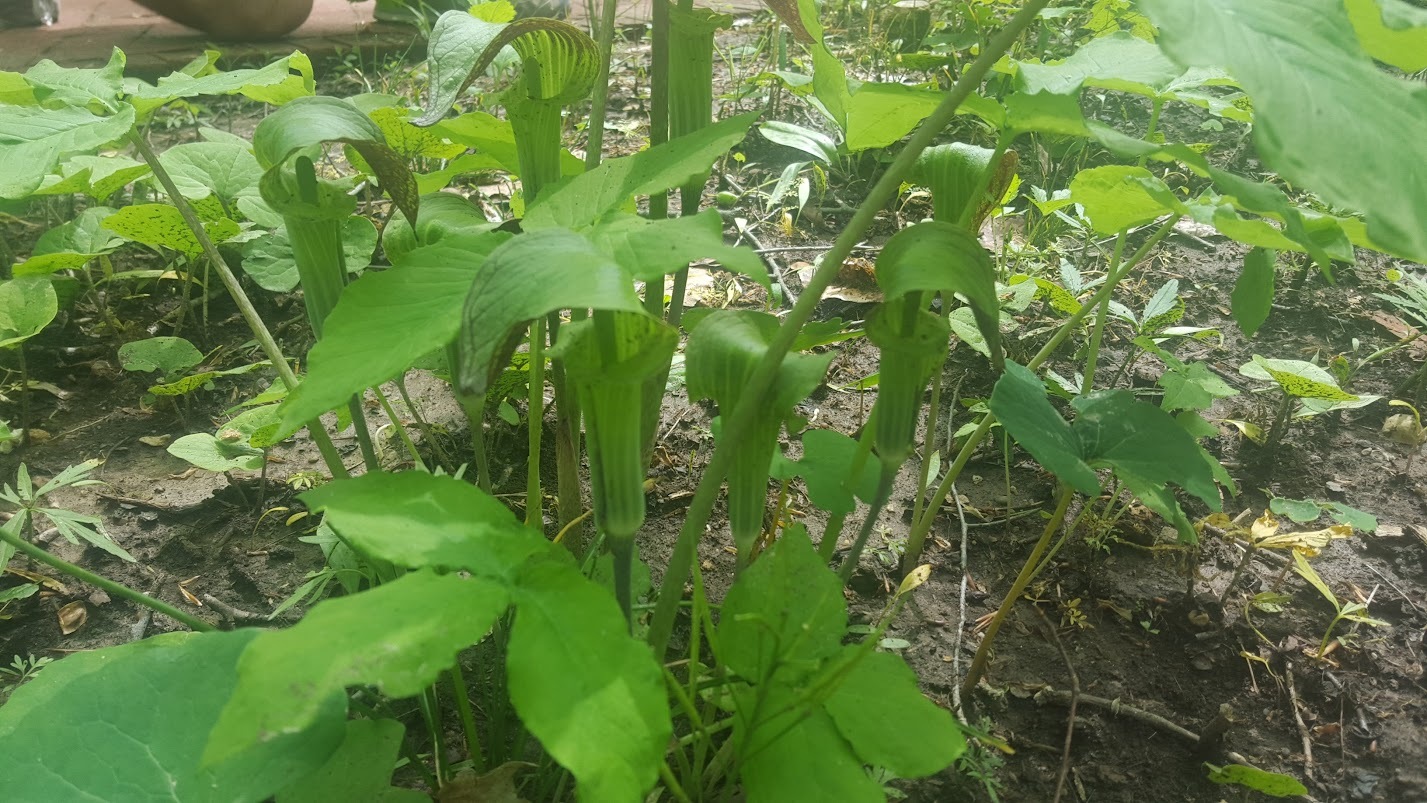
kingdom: Plantae
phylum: Tracheophyta
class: Liliopsida
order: Alismatales
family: Araceae
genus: Arisaema
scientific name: Arisaema triphyllum
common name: Jack-in-the-pulpit
